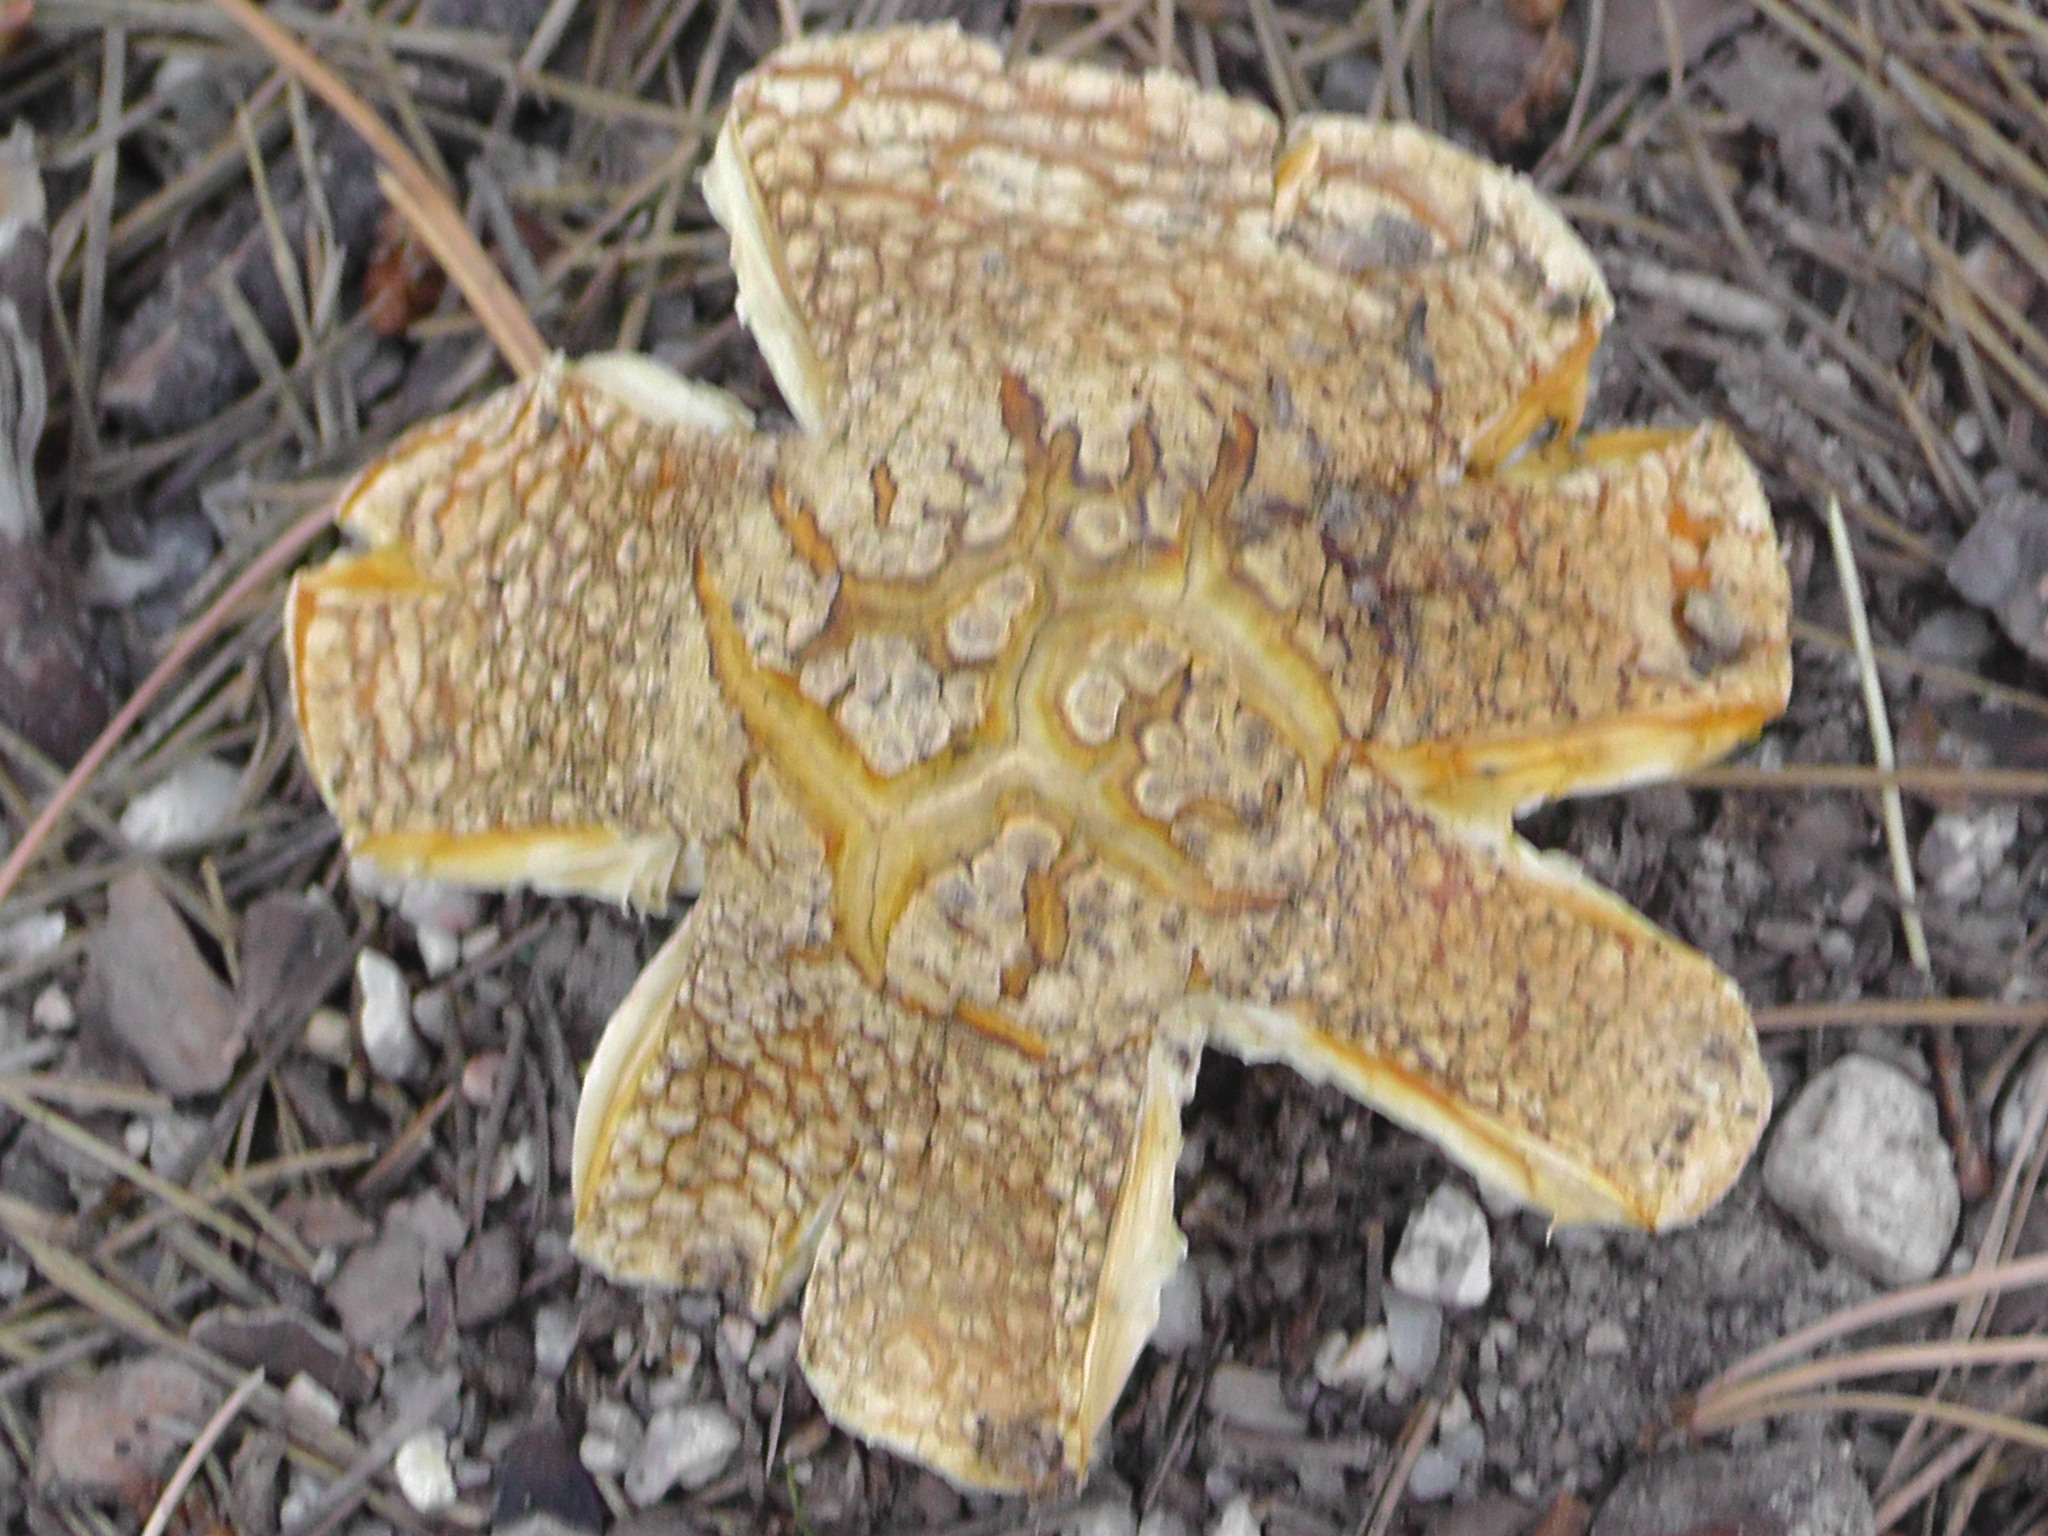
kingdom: Fungi
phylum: Basidiomycota
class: Agaricomycetes
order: Agaricales
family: Amanitaceae
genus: Amanita
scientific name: Amanita muscaria
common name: Fly agaric
